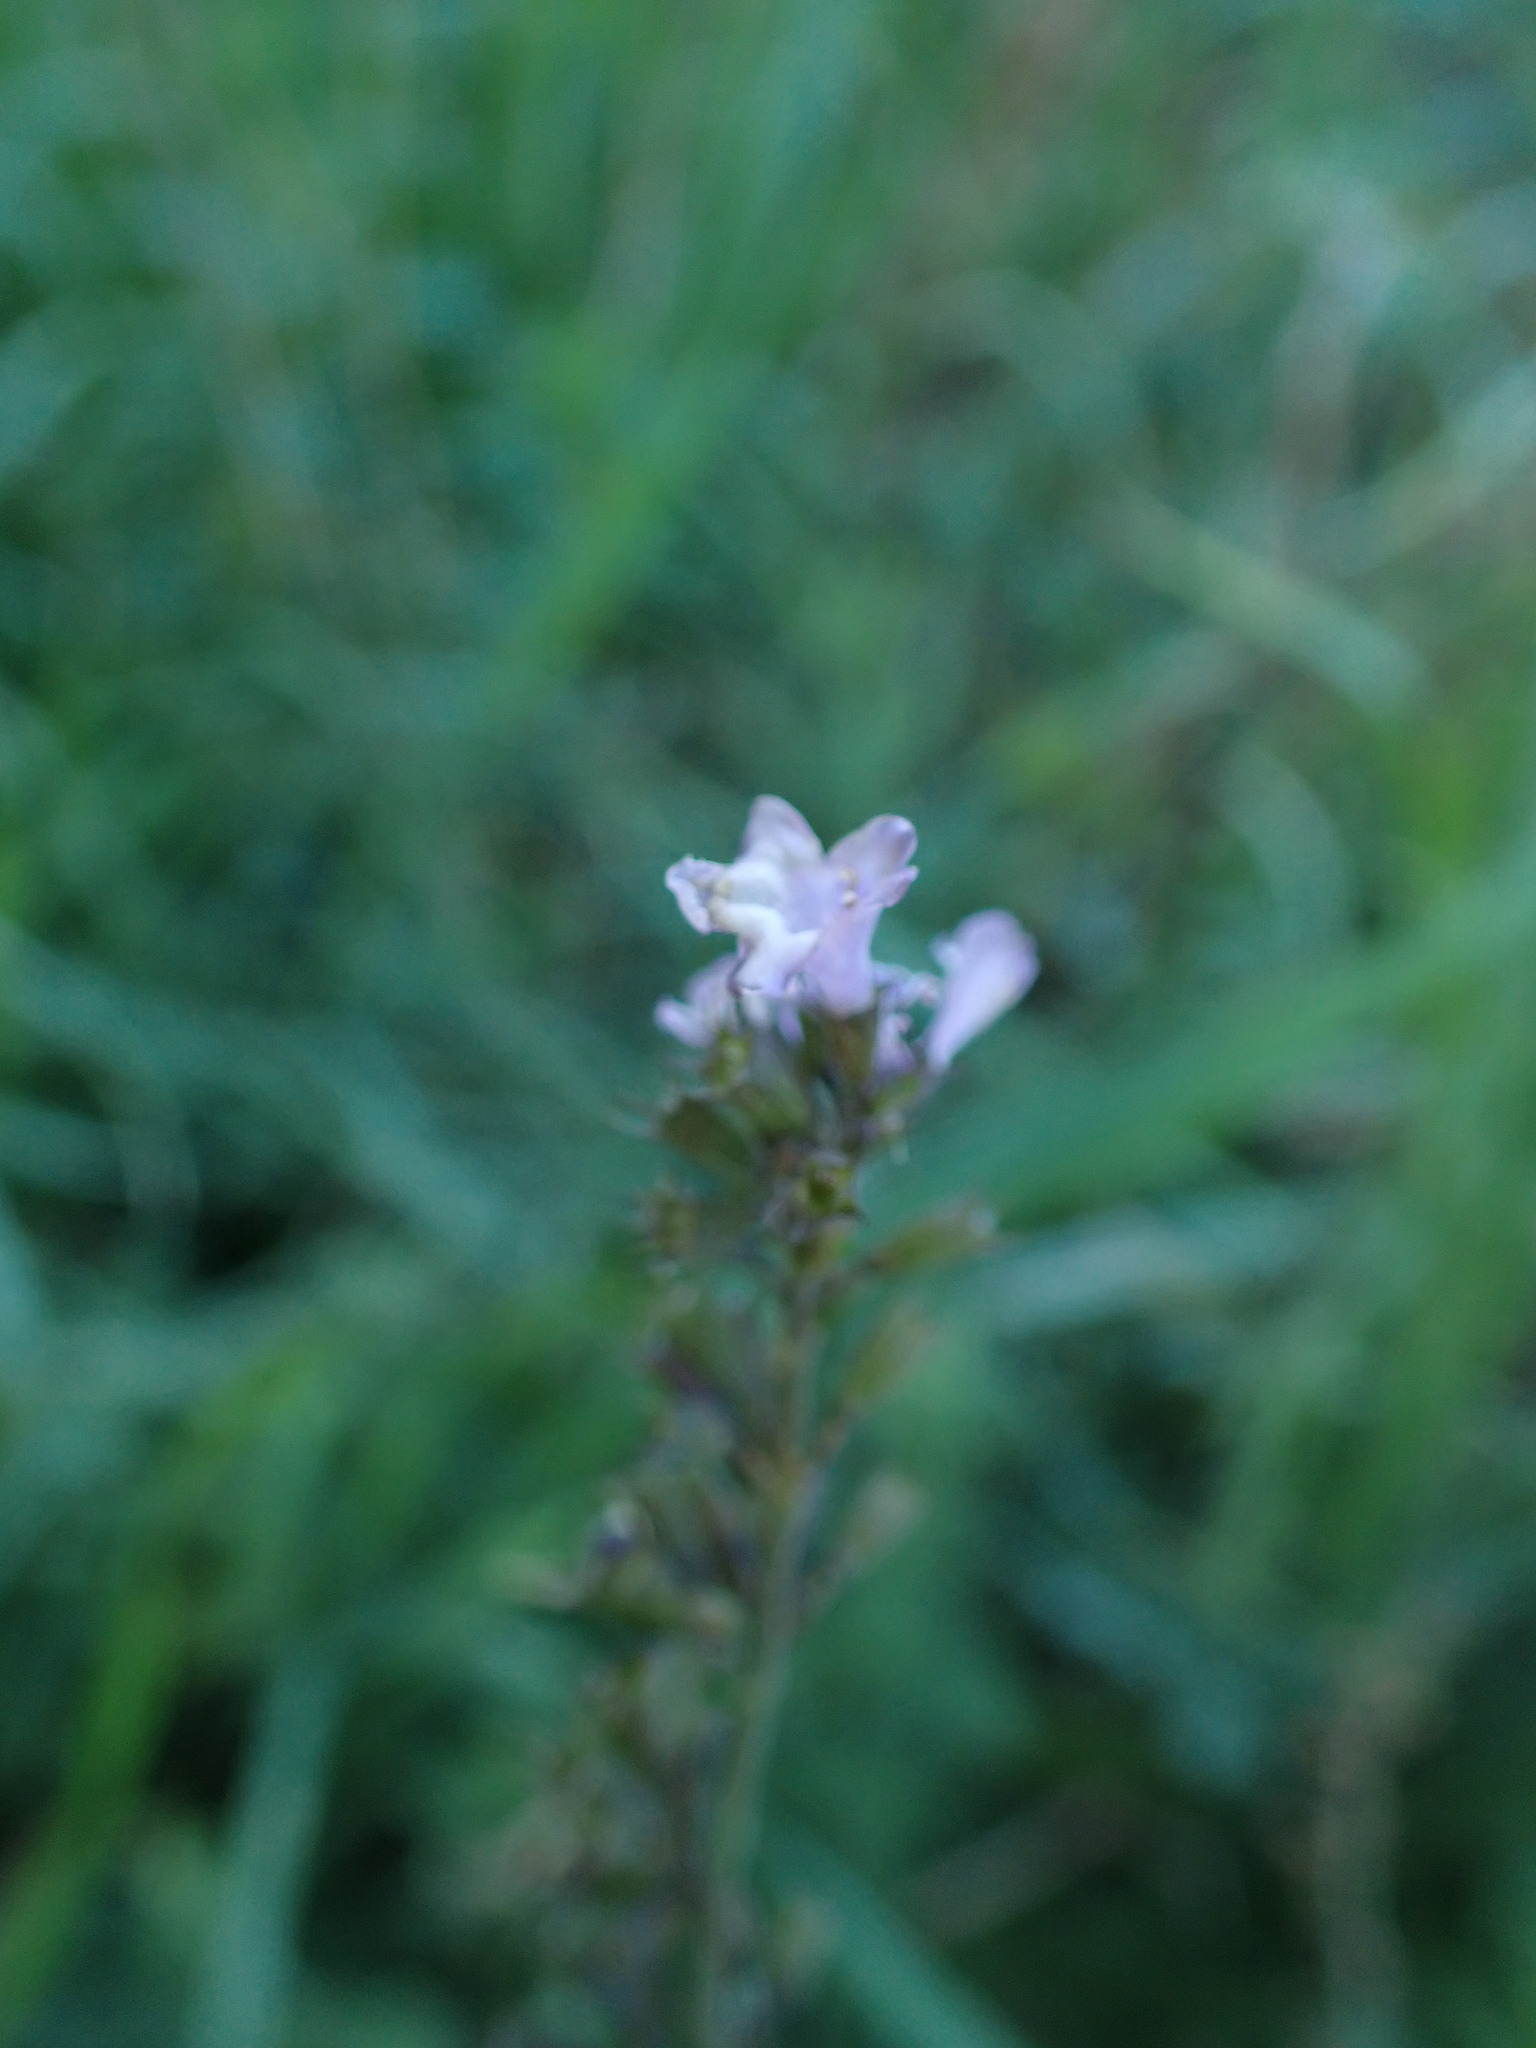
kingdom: Plantae
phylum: Tracheophyta
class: Magnoliopsida
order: Lamiales
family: Lamiaceae
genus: Clinopodium
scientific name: Clinopodium nepeta
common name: Lesser calamint
